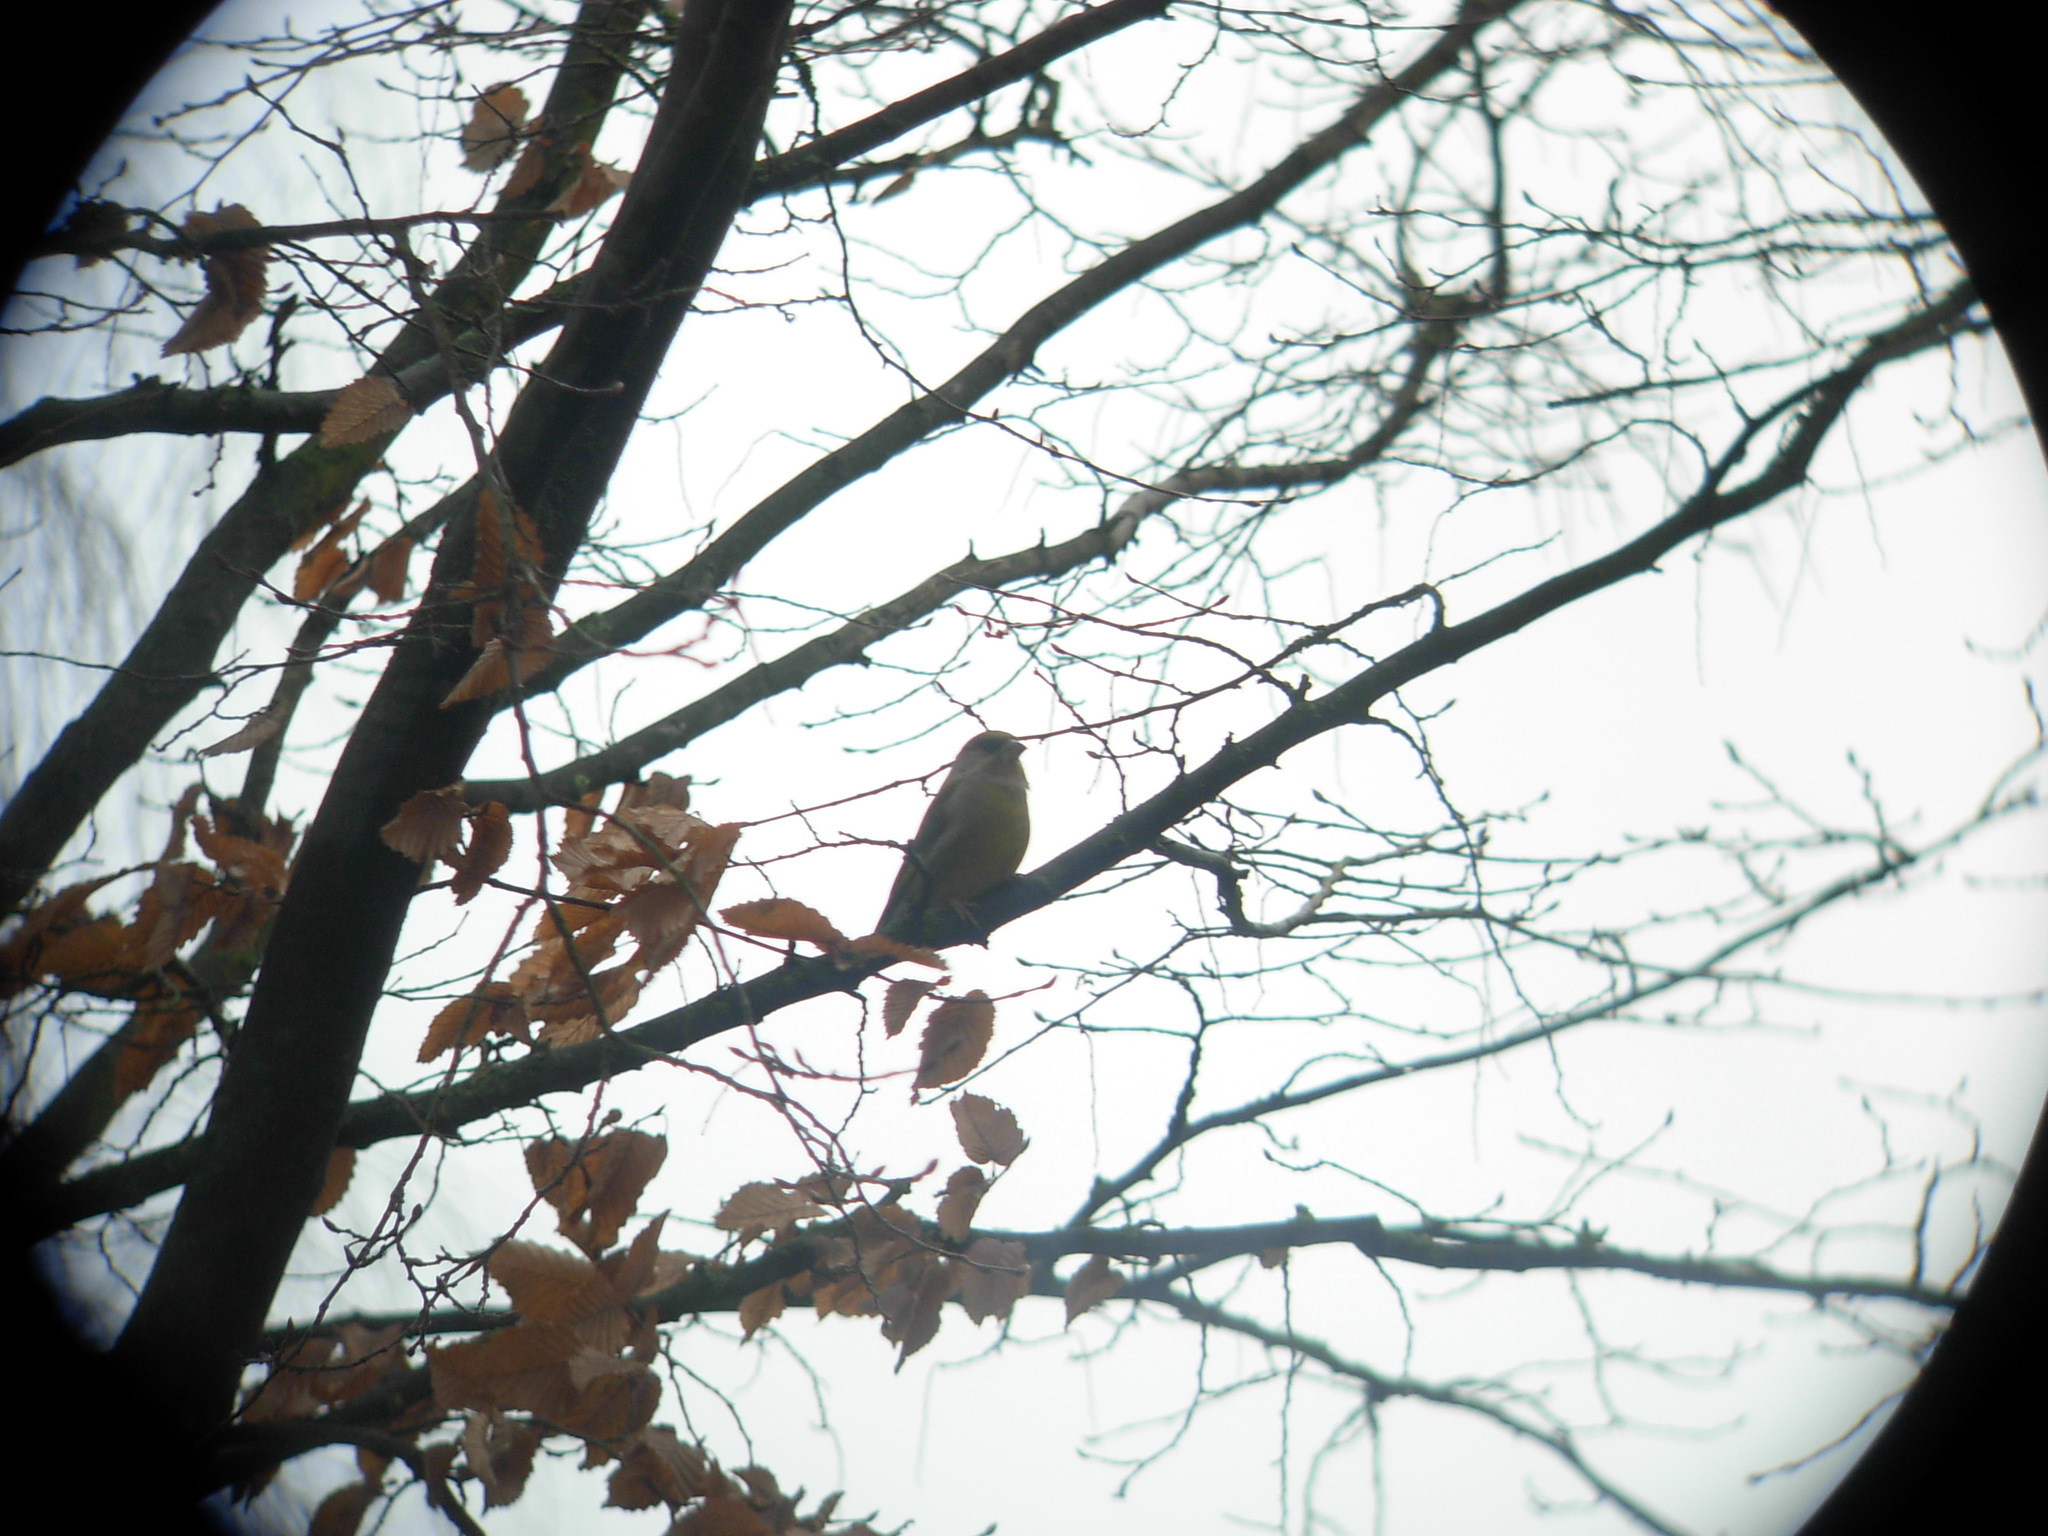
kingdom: Plantae
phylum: Tracheophyta
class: Liliopsida
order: Poales
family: Poaceae
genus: Chloris
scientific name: Chloris chloris
